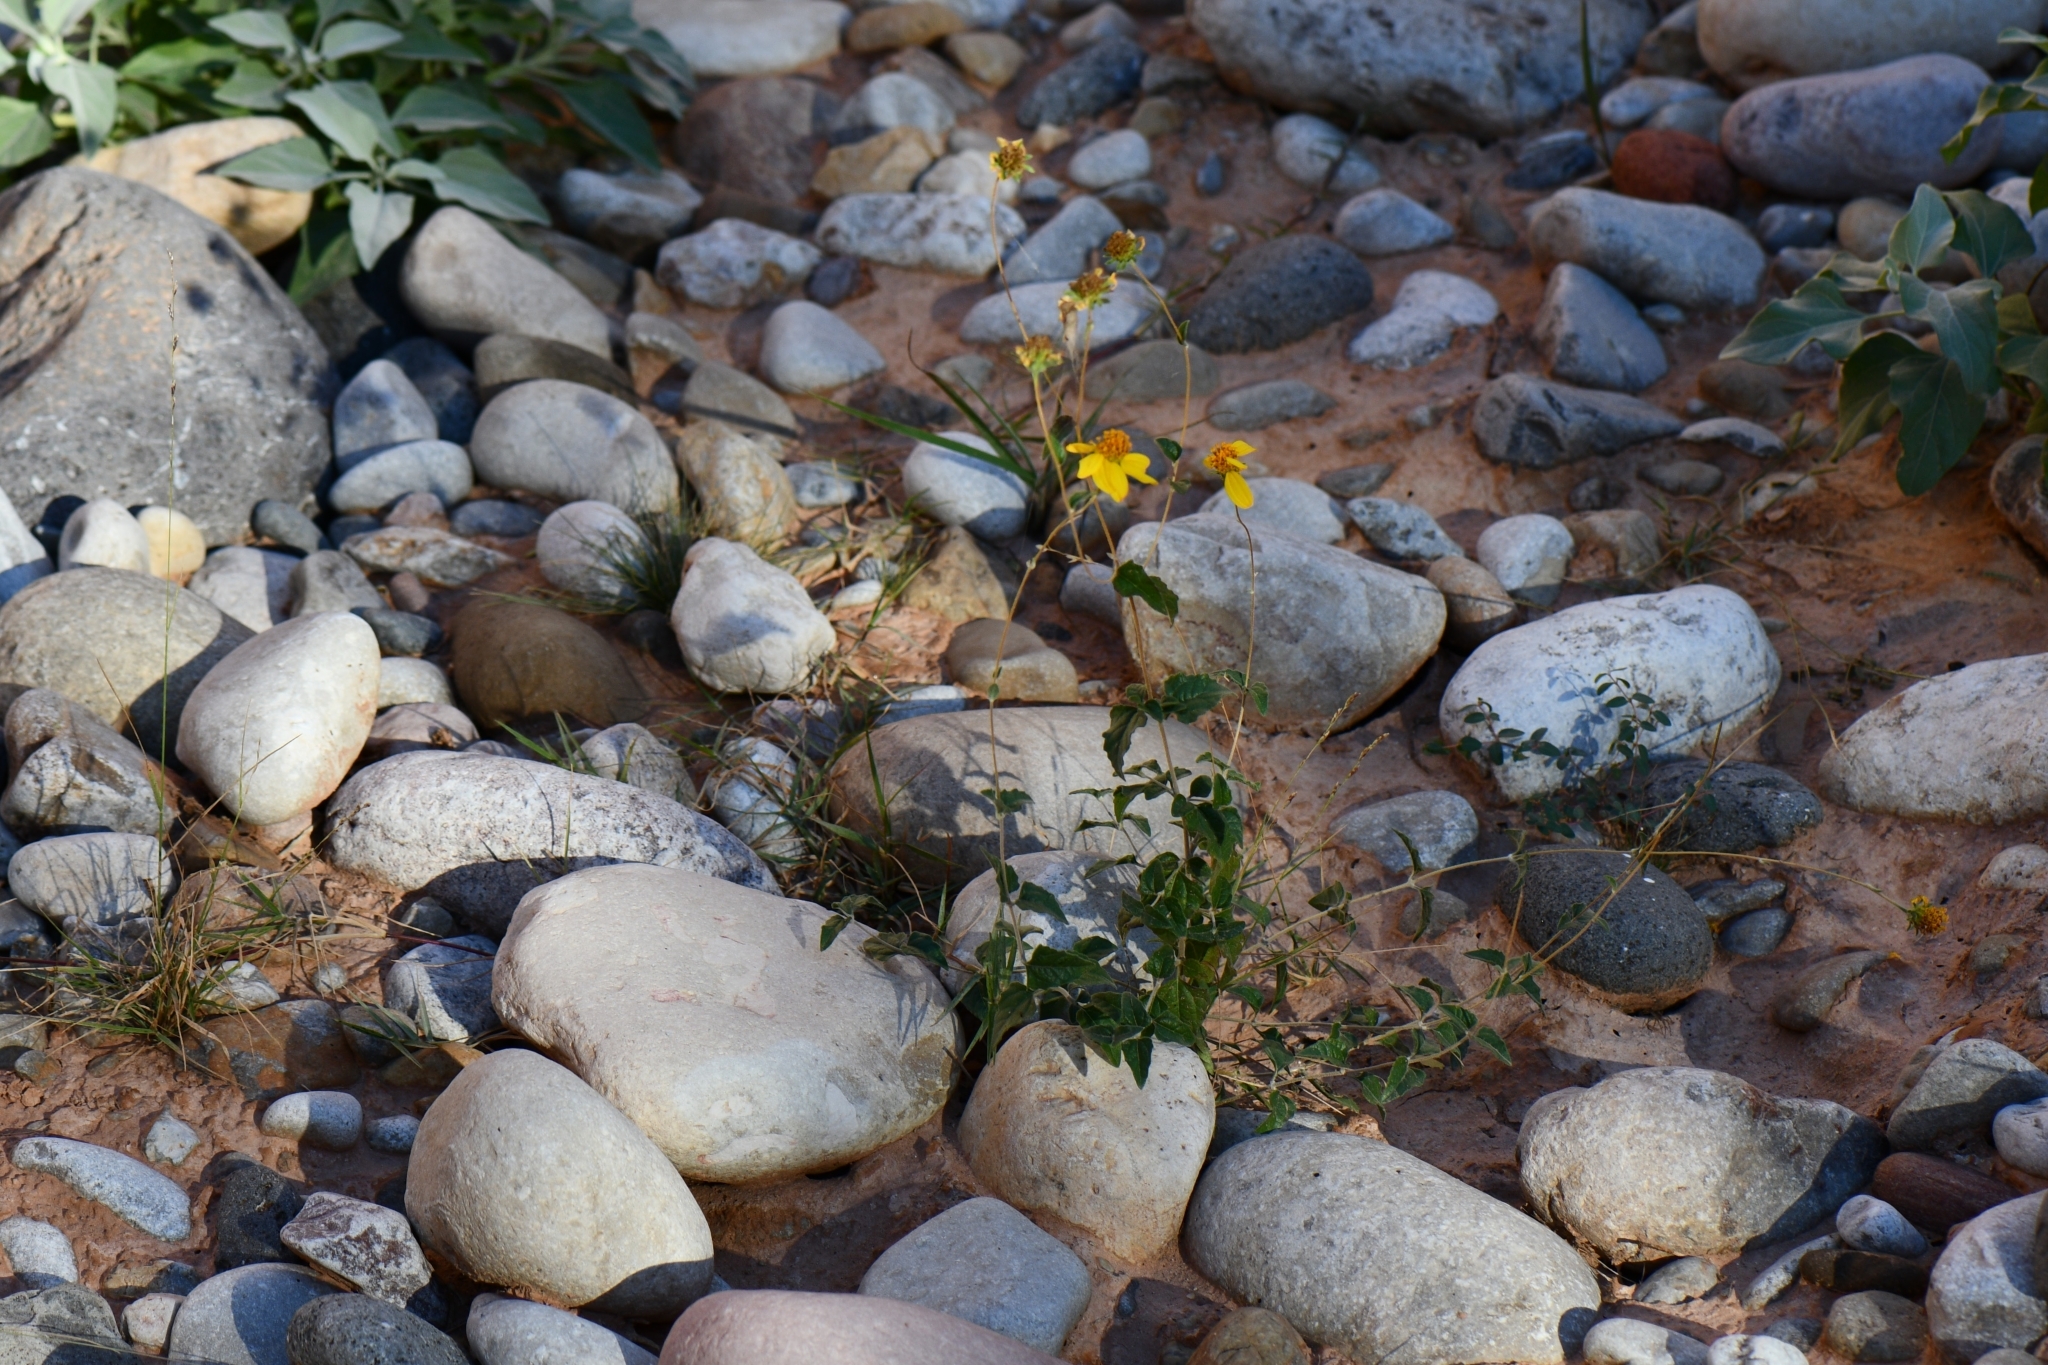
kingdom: Plantae
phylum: Tracheophyta
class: Magnoliopsida
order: Asterales
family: Asteraceae
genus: Bahiopsis
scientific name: Bahiopsis parishii
